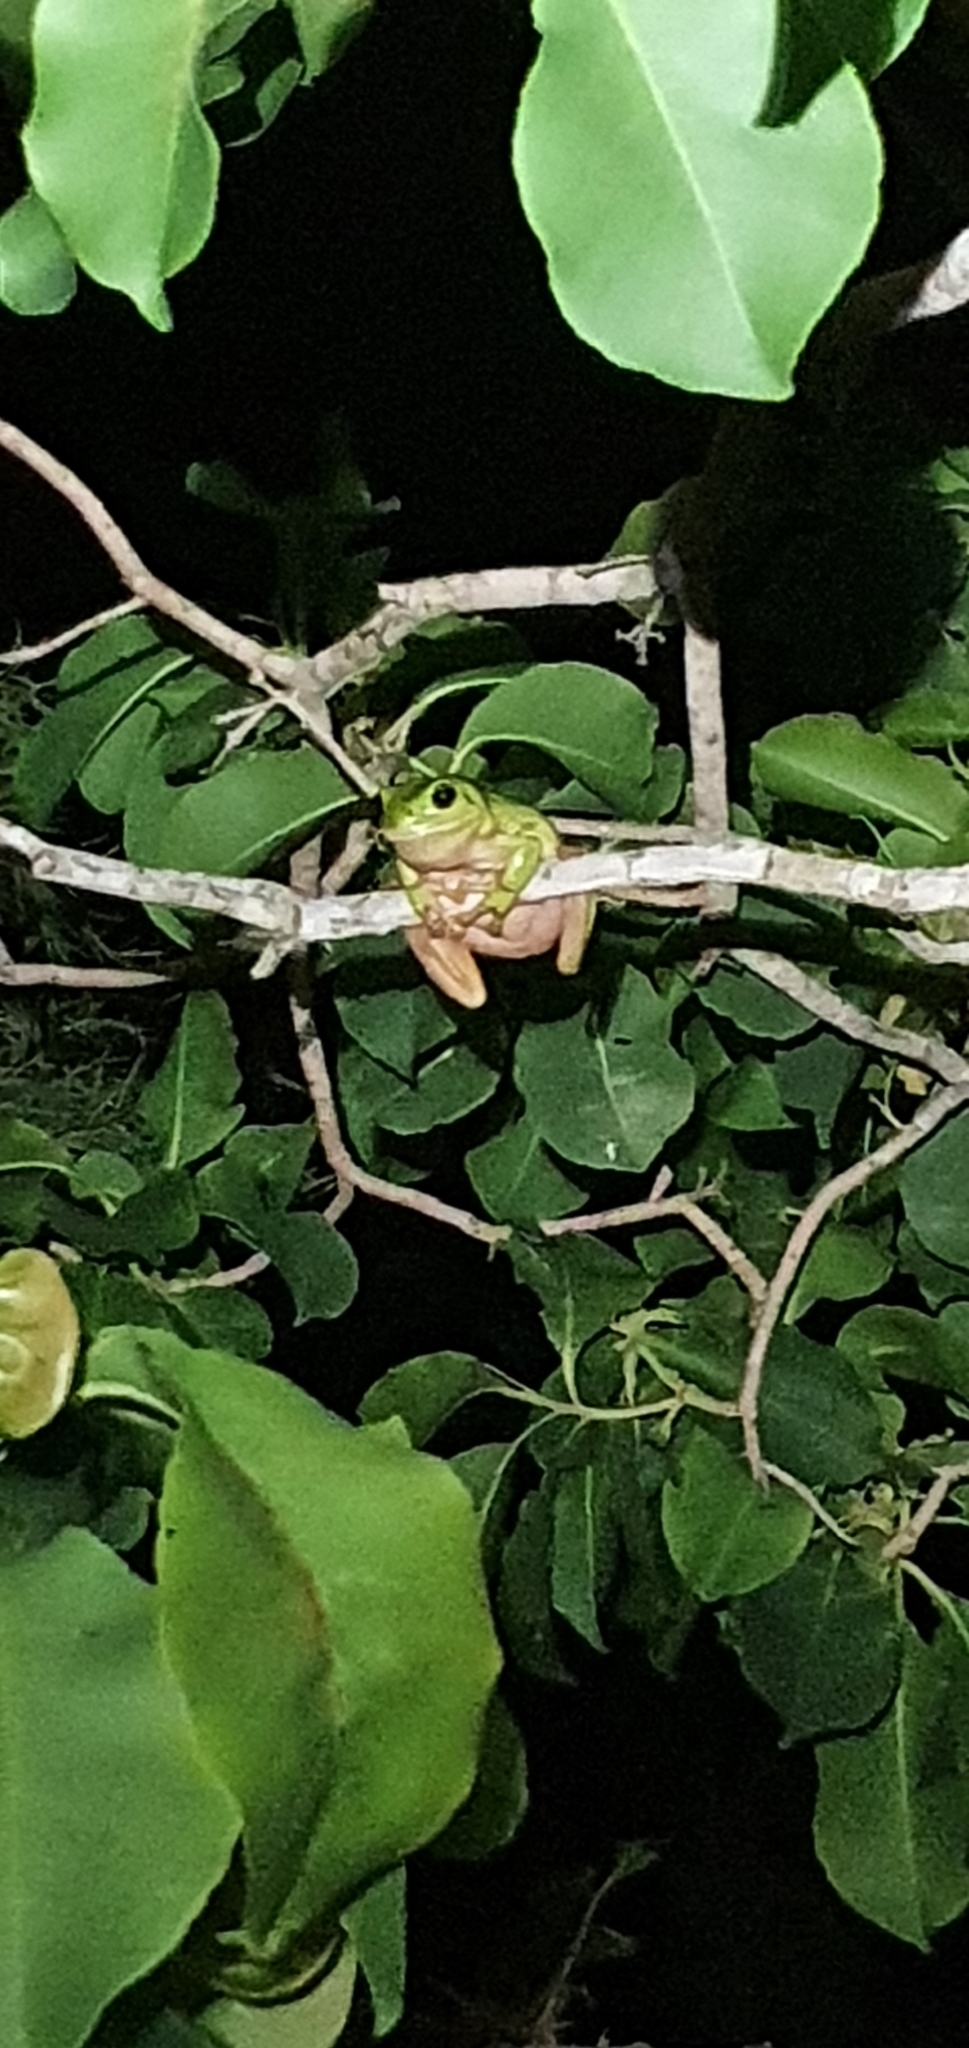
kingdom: Animalia
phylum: Chordata
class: Amphibia
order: Anura
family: Pelodryadidae
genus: Ranoidea
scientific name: Ranoidea caerulea
